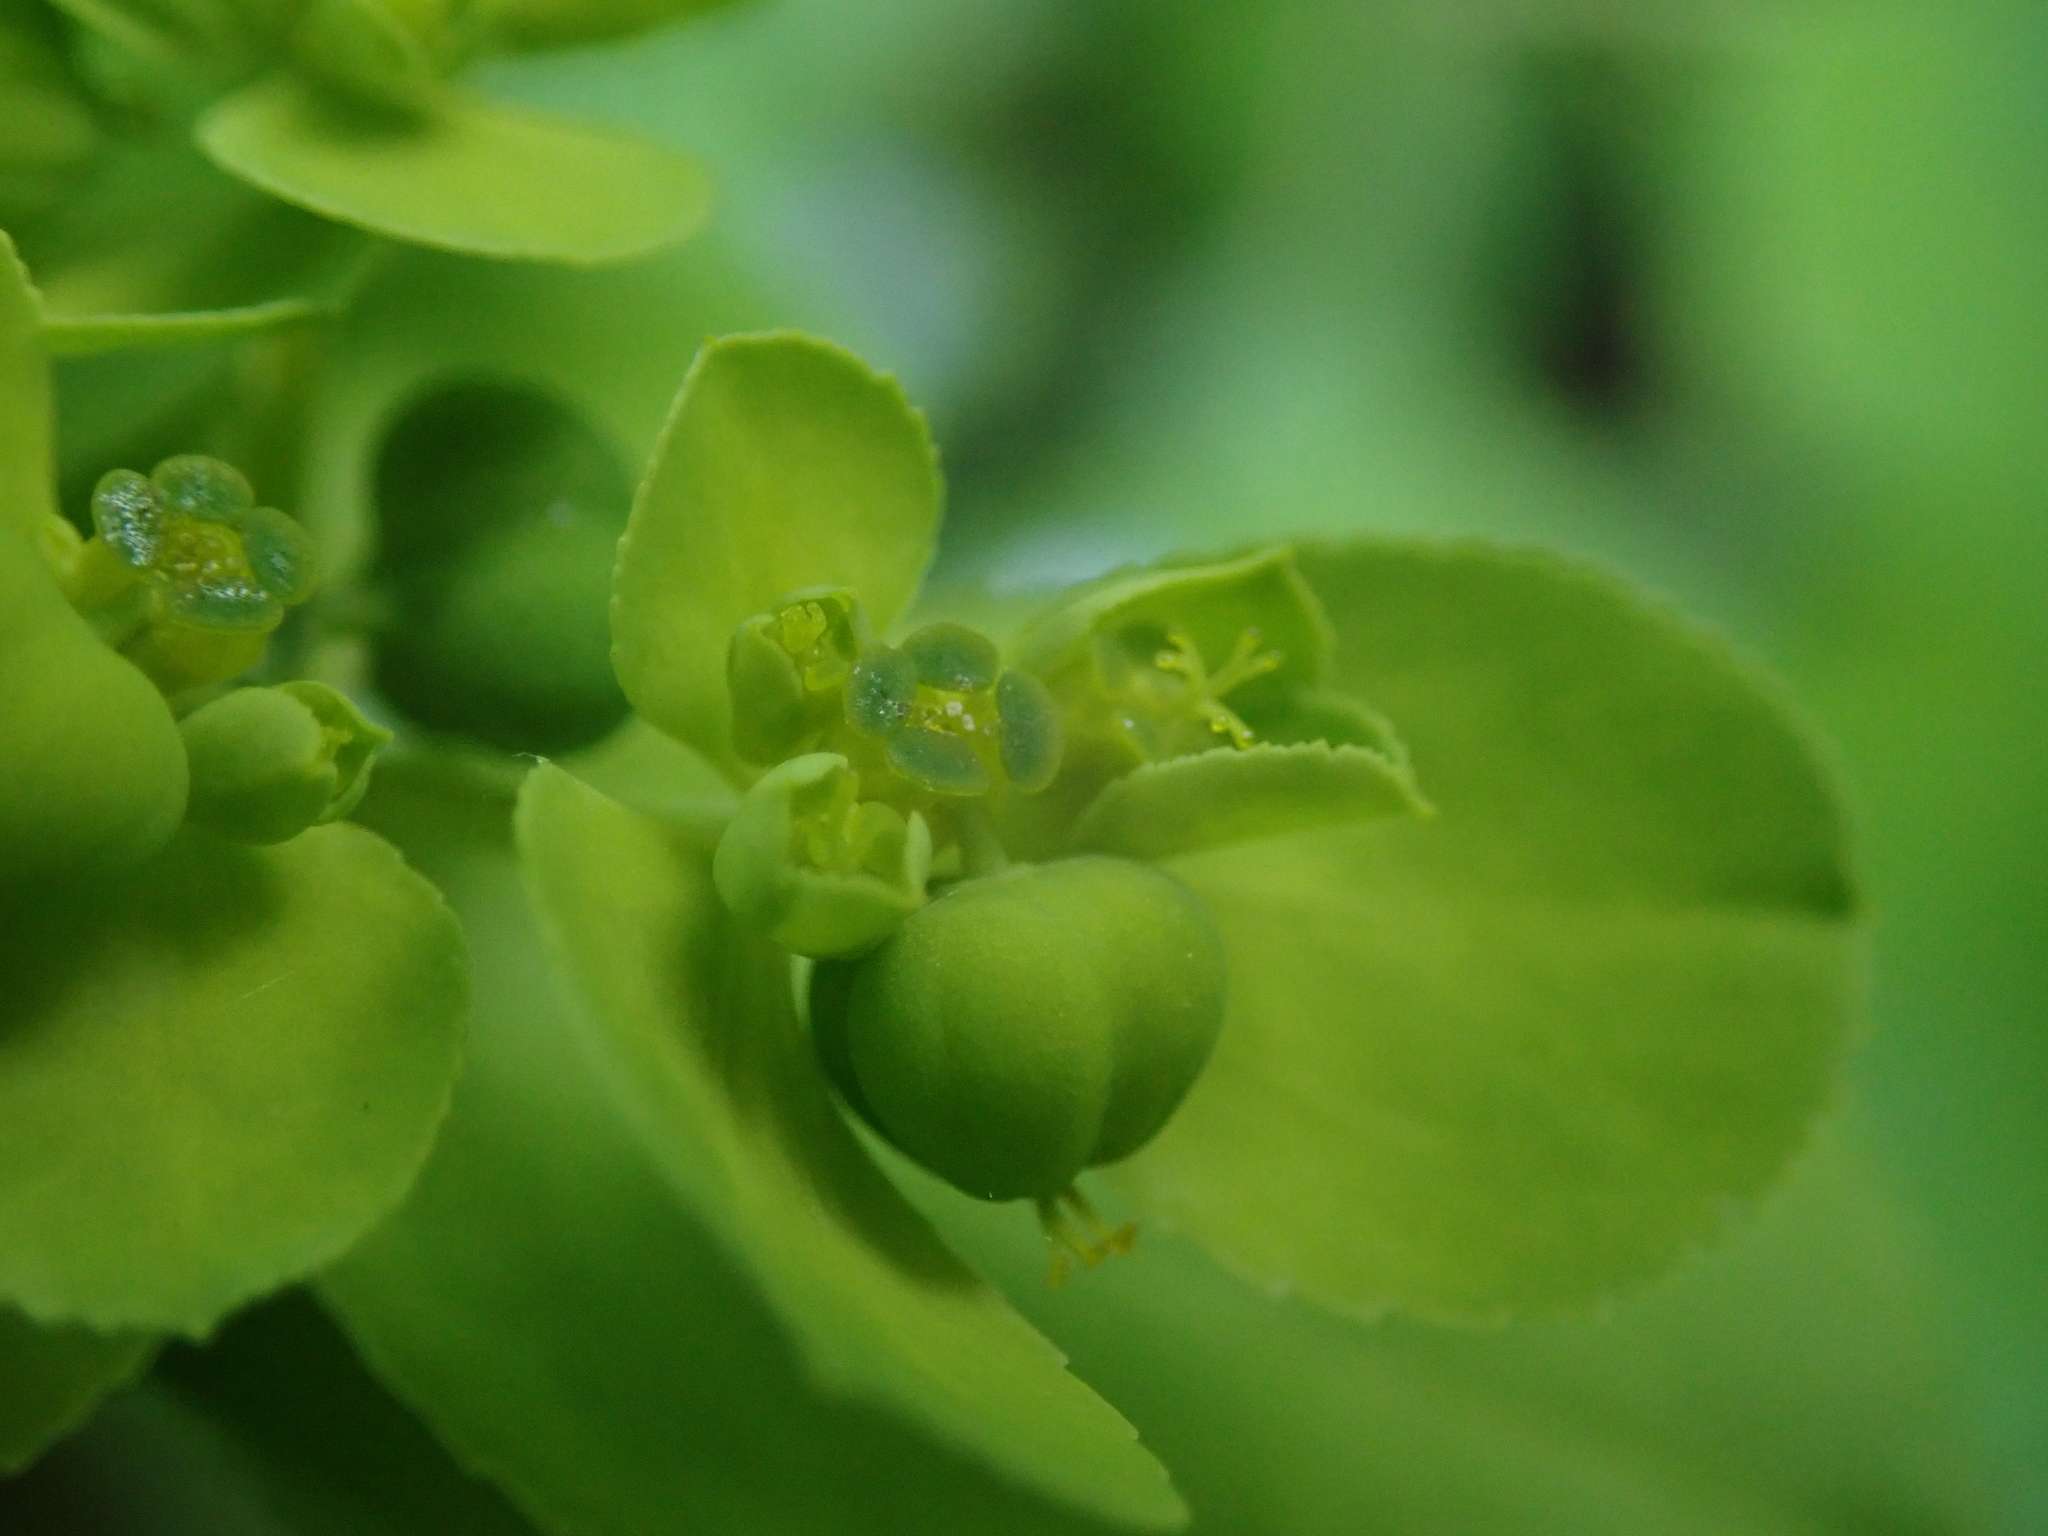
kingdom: Plantae
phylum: Tracheophyta
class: Magnoliopsida
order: Malpighiales
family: Euphorbiaceae
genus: Euphorbia
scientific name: Euphorbia helioscopia
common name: Sun spurge
